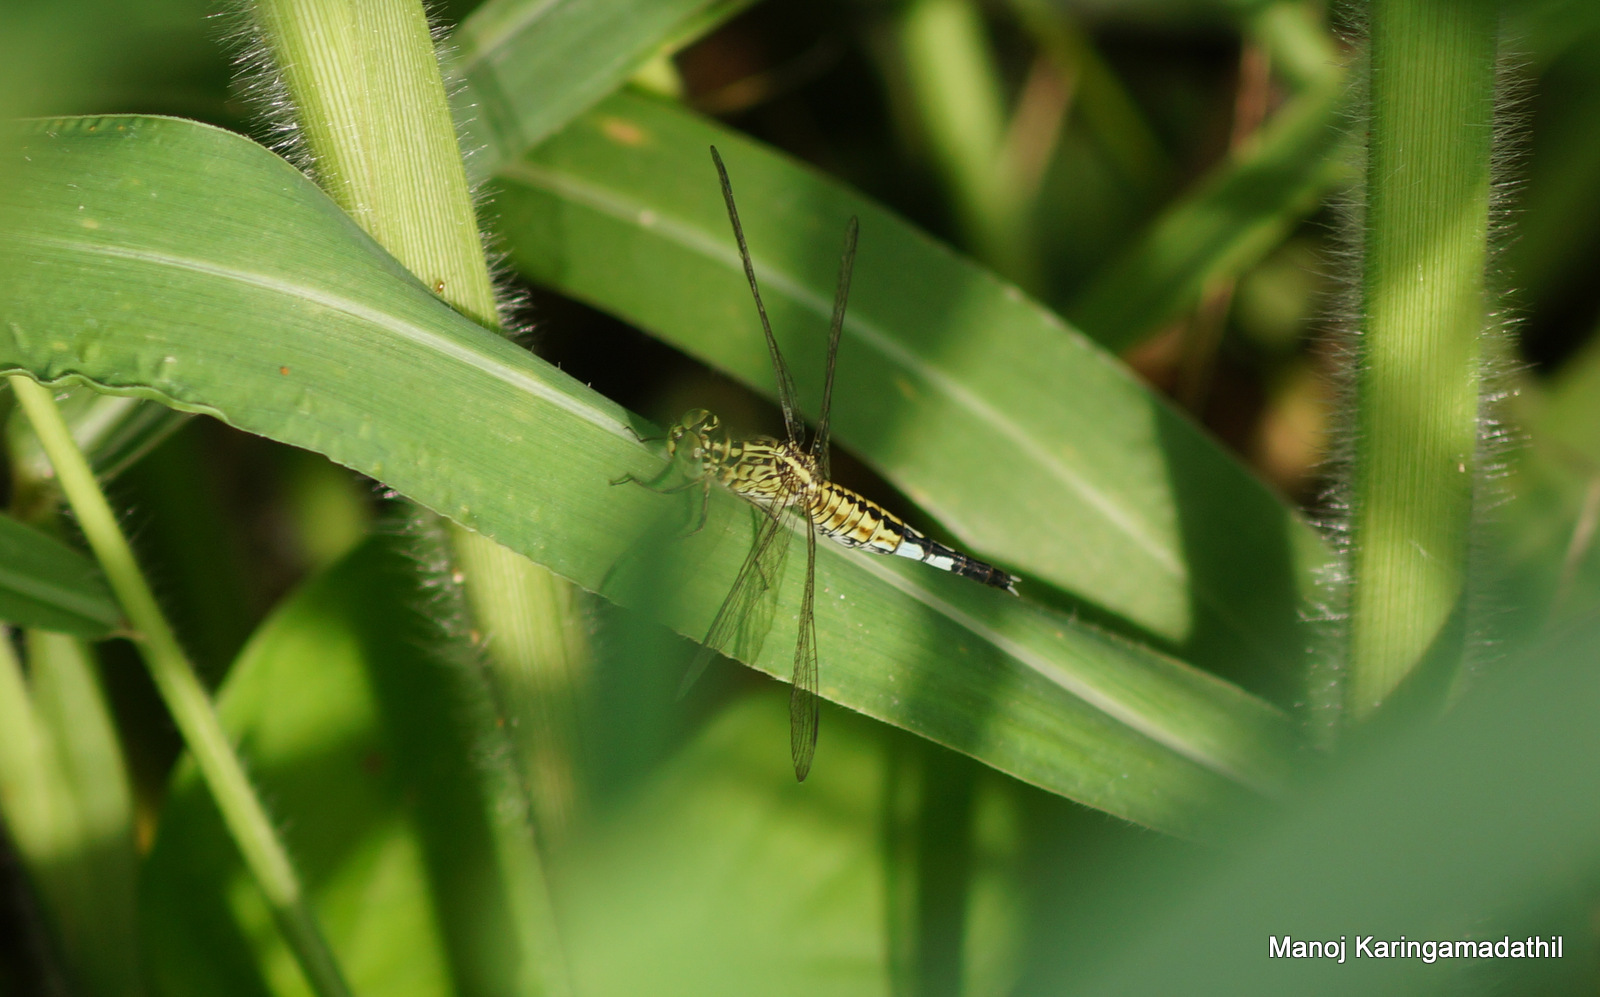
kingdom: Animalia
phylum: Arthropoda
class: Insecta
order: Odonata
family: Libellulidae
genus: Acisoma
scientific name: Acisoma panorpoides
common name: Asian pintail
